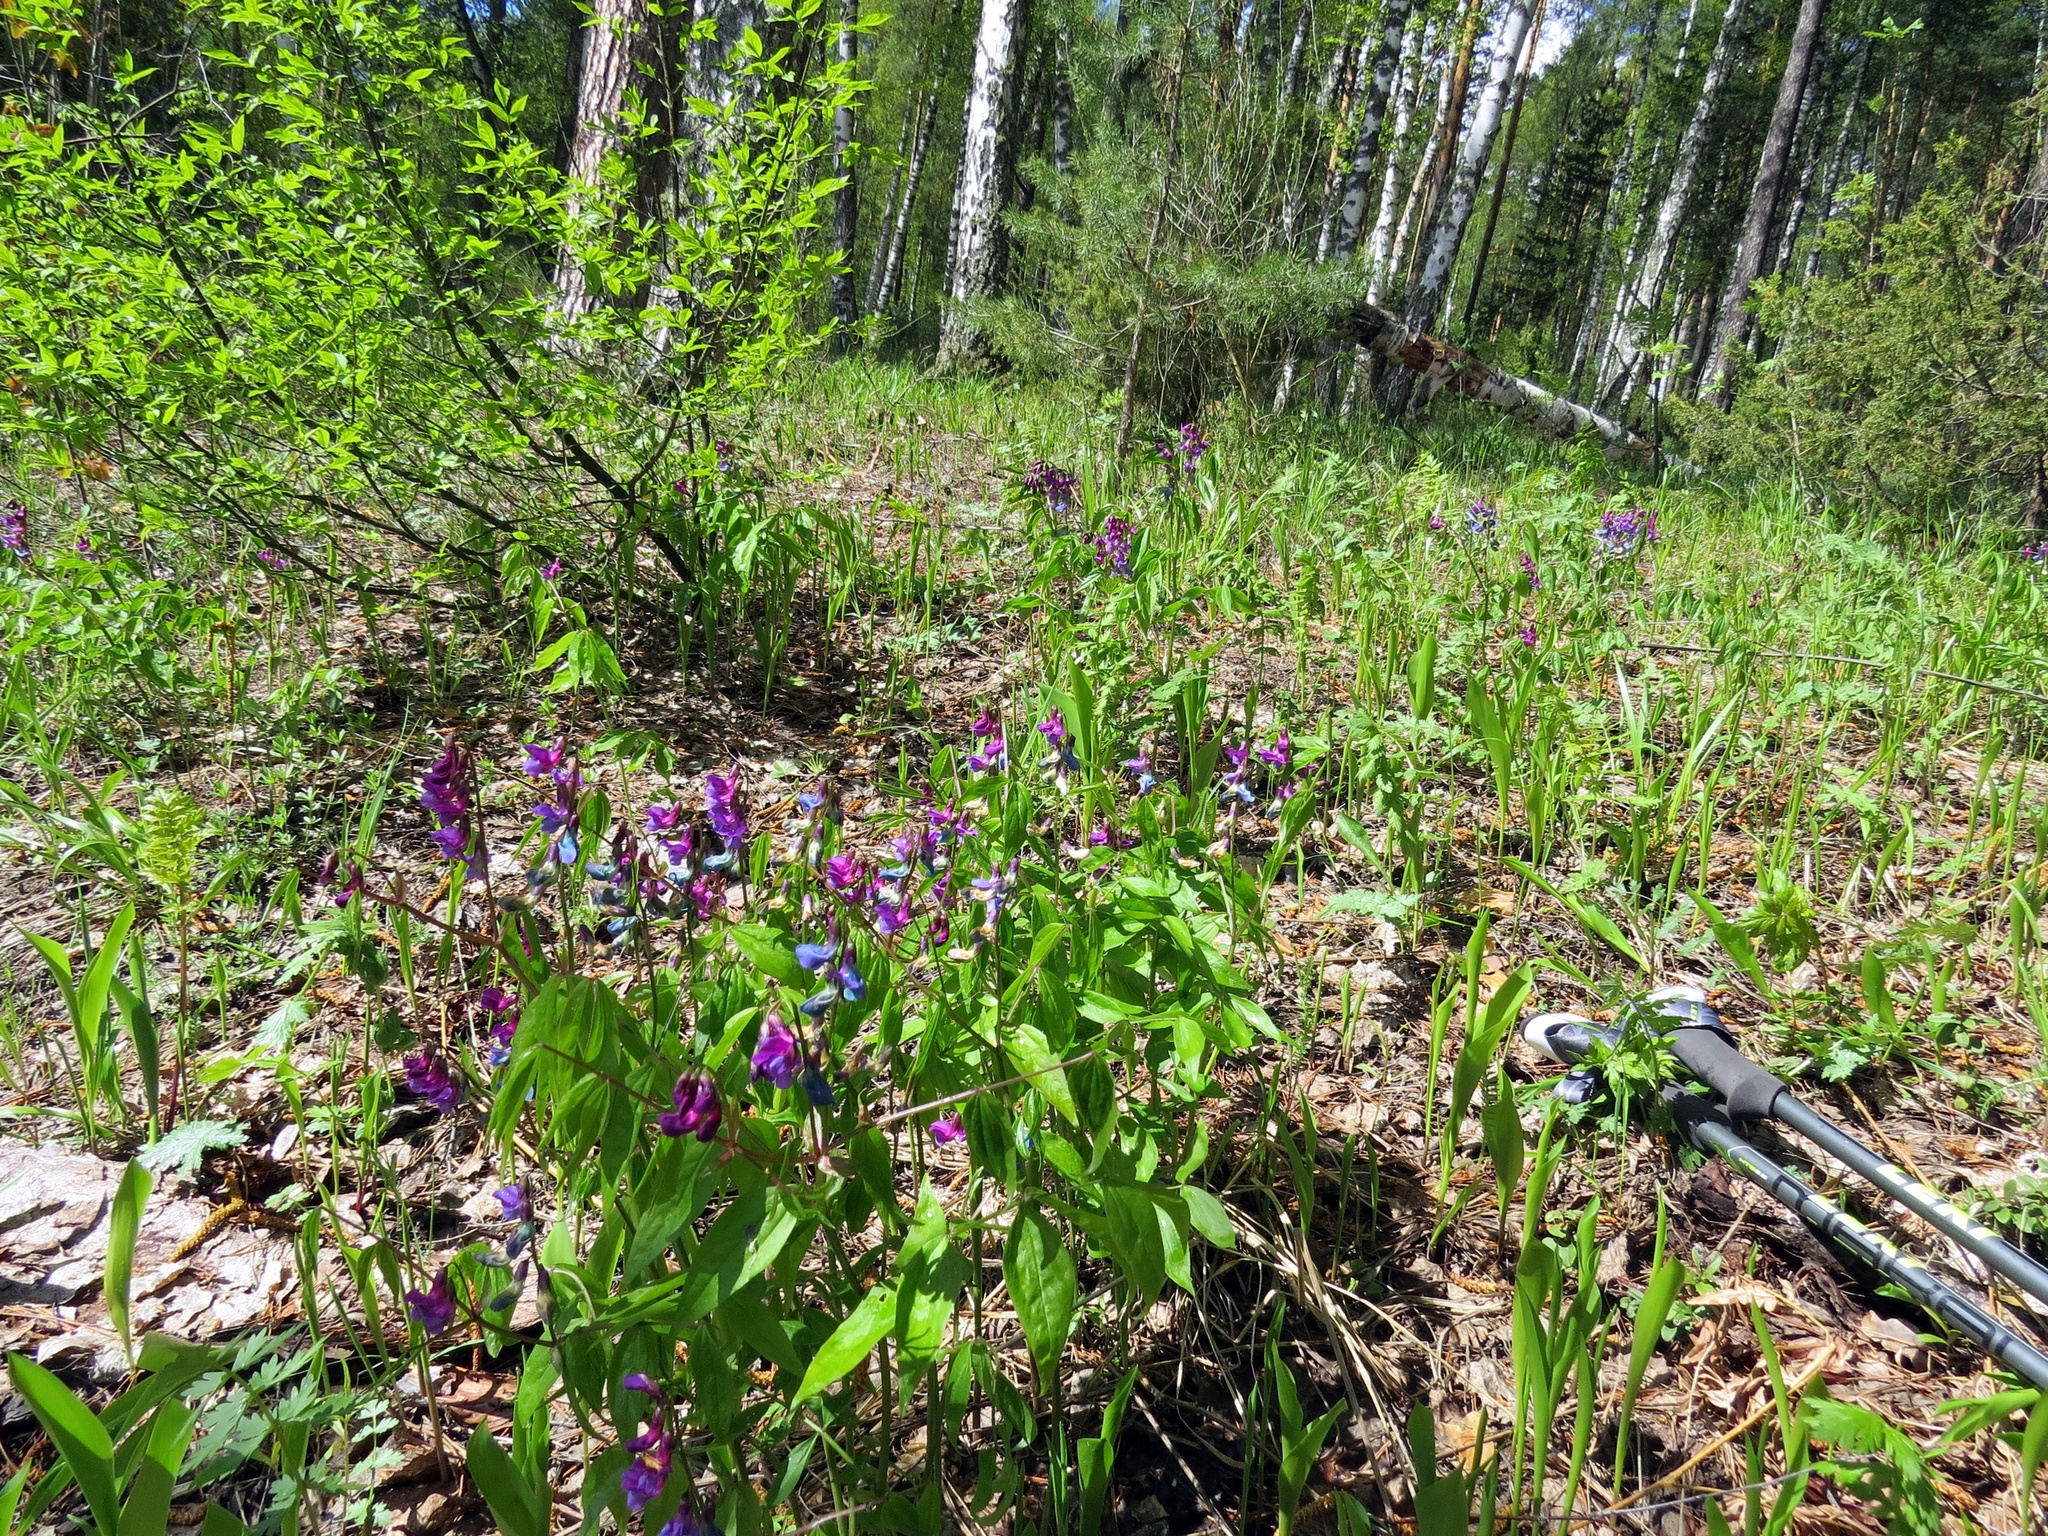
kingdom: Plantae
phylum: Tracheophyta
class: Magnoliopsida
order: Fabales
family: Fabaceae
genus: Lathyrus
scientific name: Lathyrus vernus
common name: Spring pea
